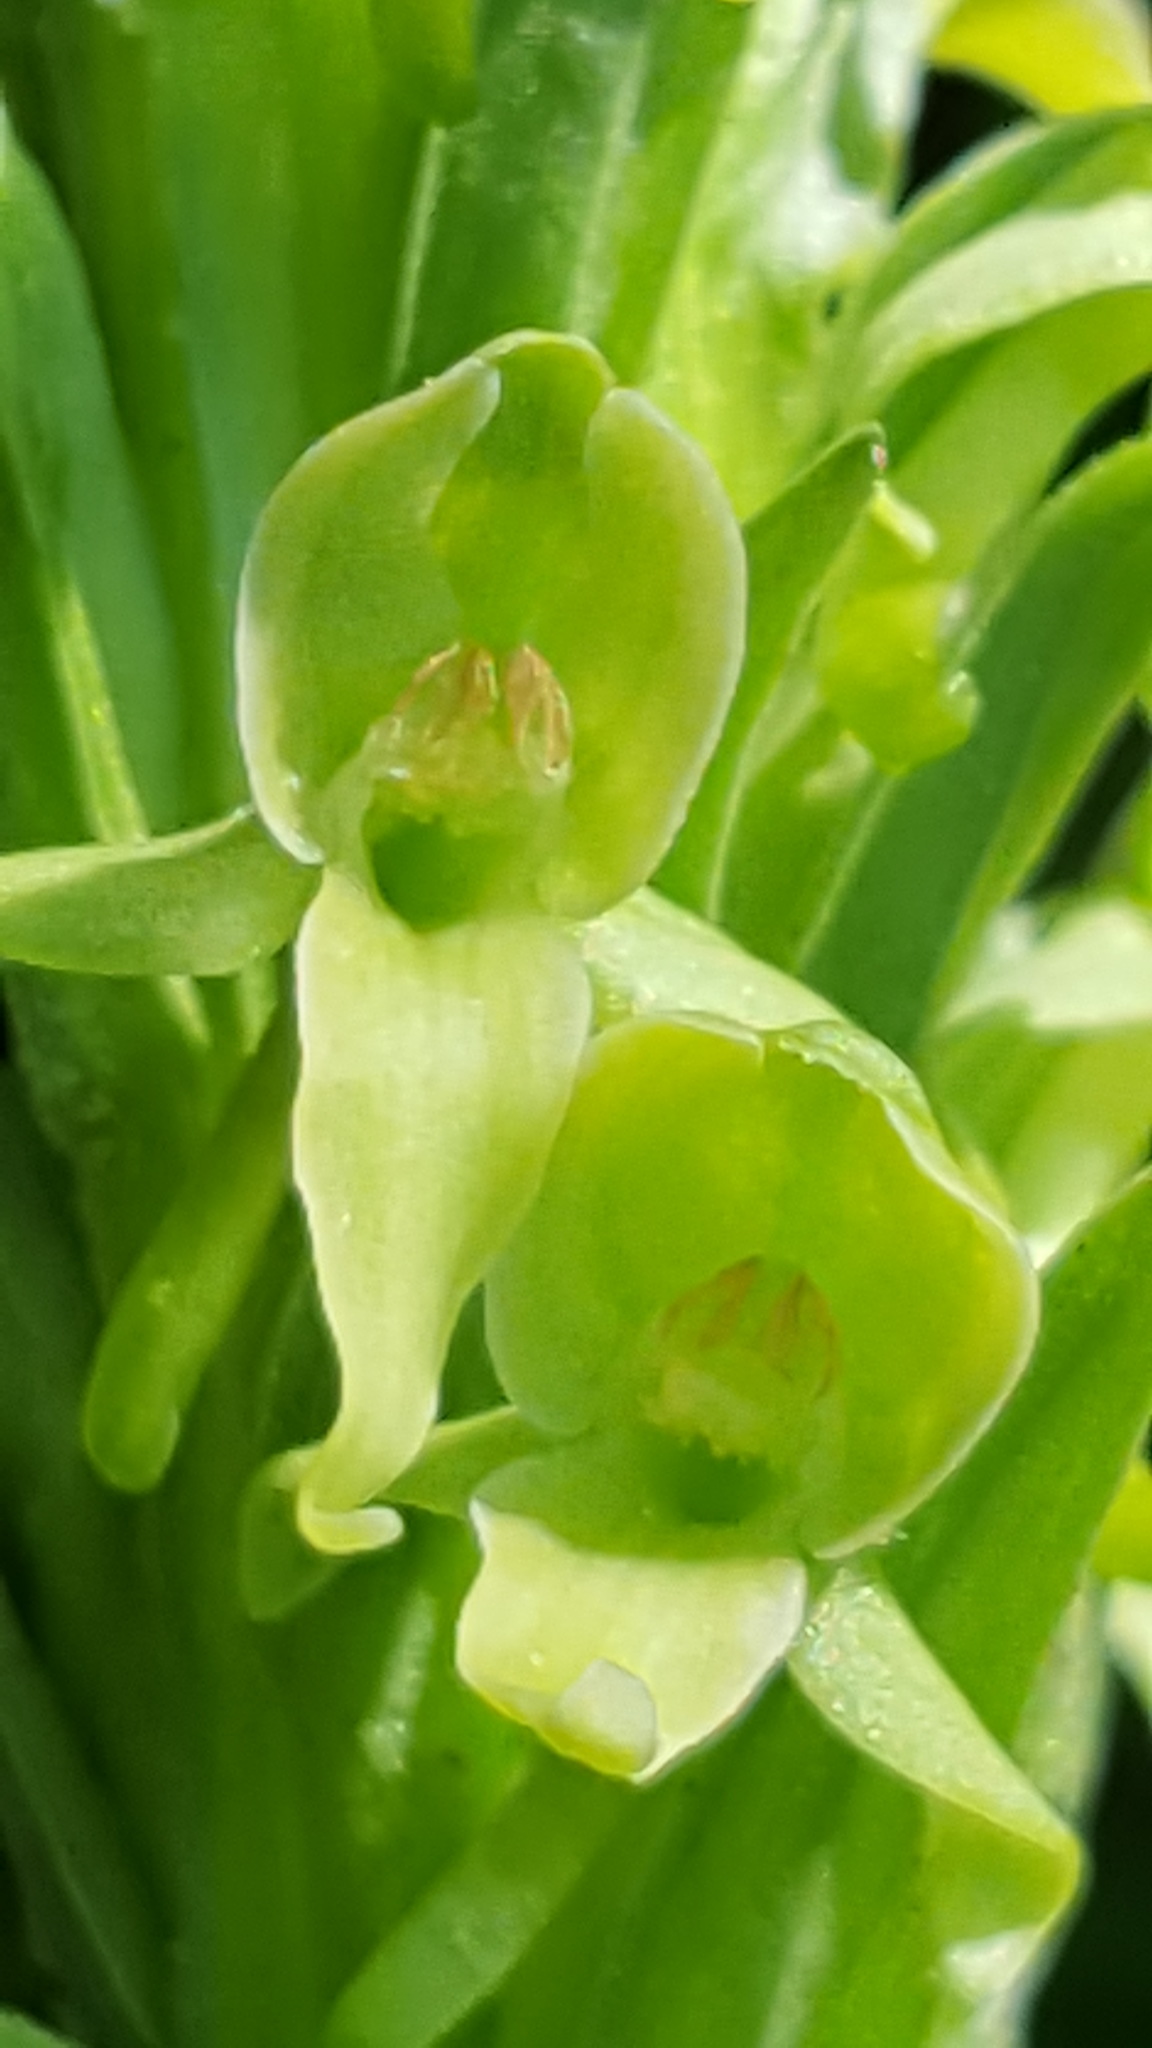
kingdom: Plantae
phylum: Tracheophyta
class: Liliopsida
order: Asparagales
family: Orchidaceae
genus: Platanthera
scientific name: Platanthera huronensis
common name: Fragrant green orchid
